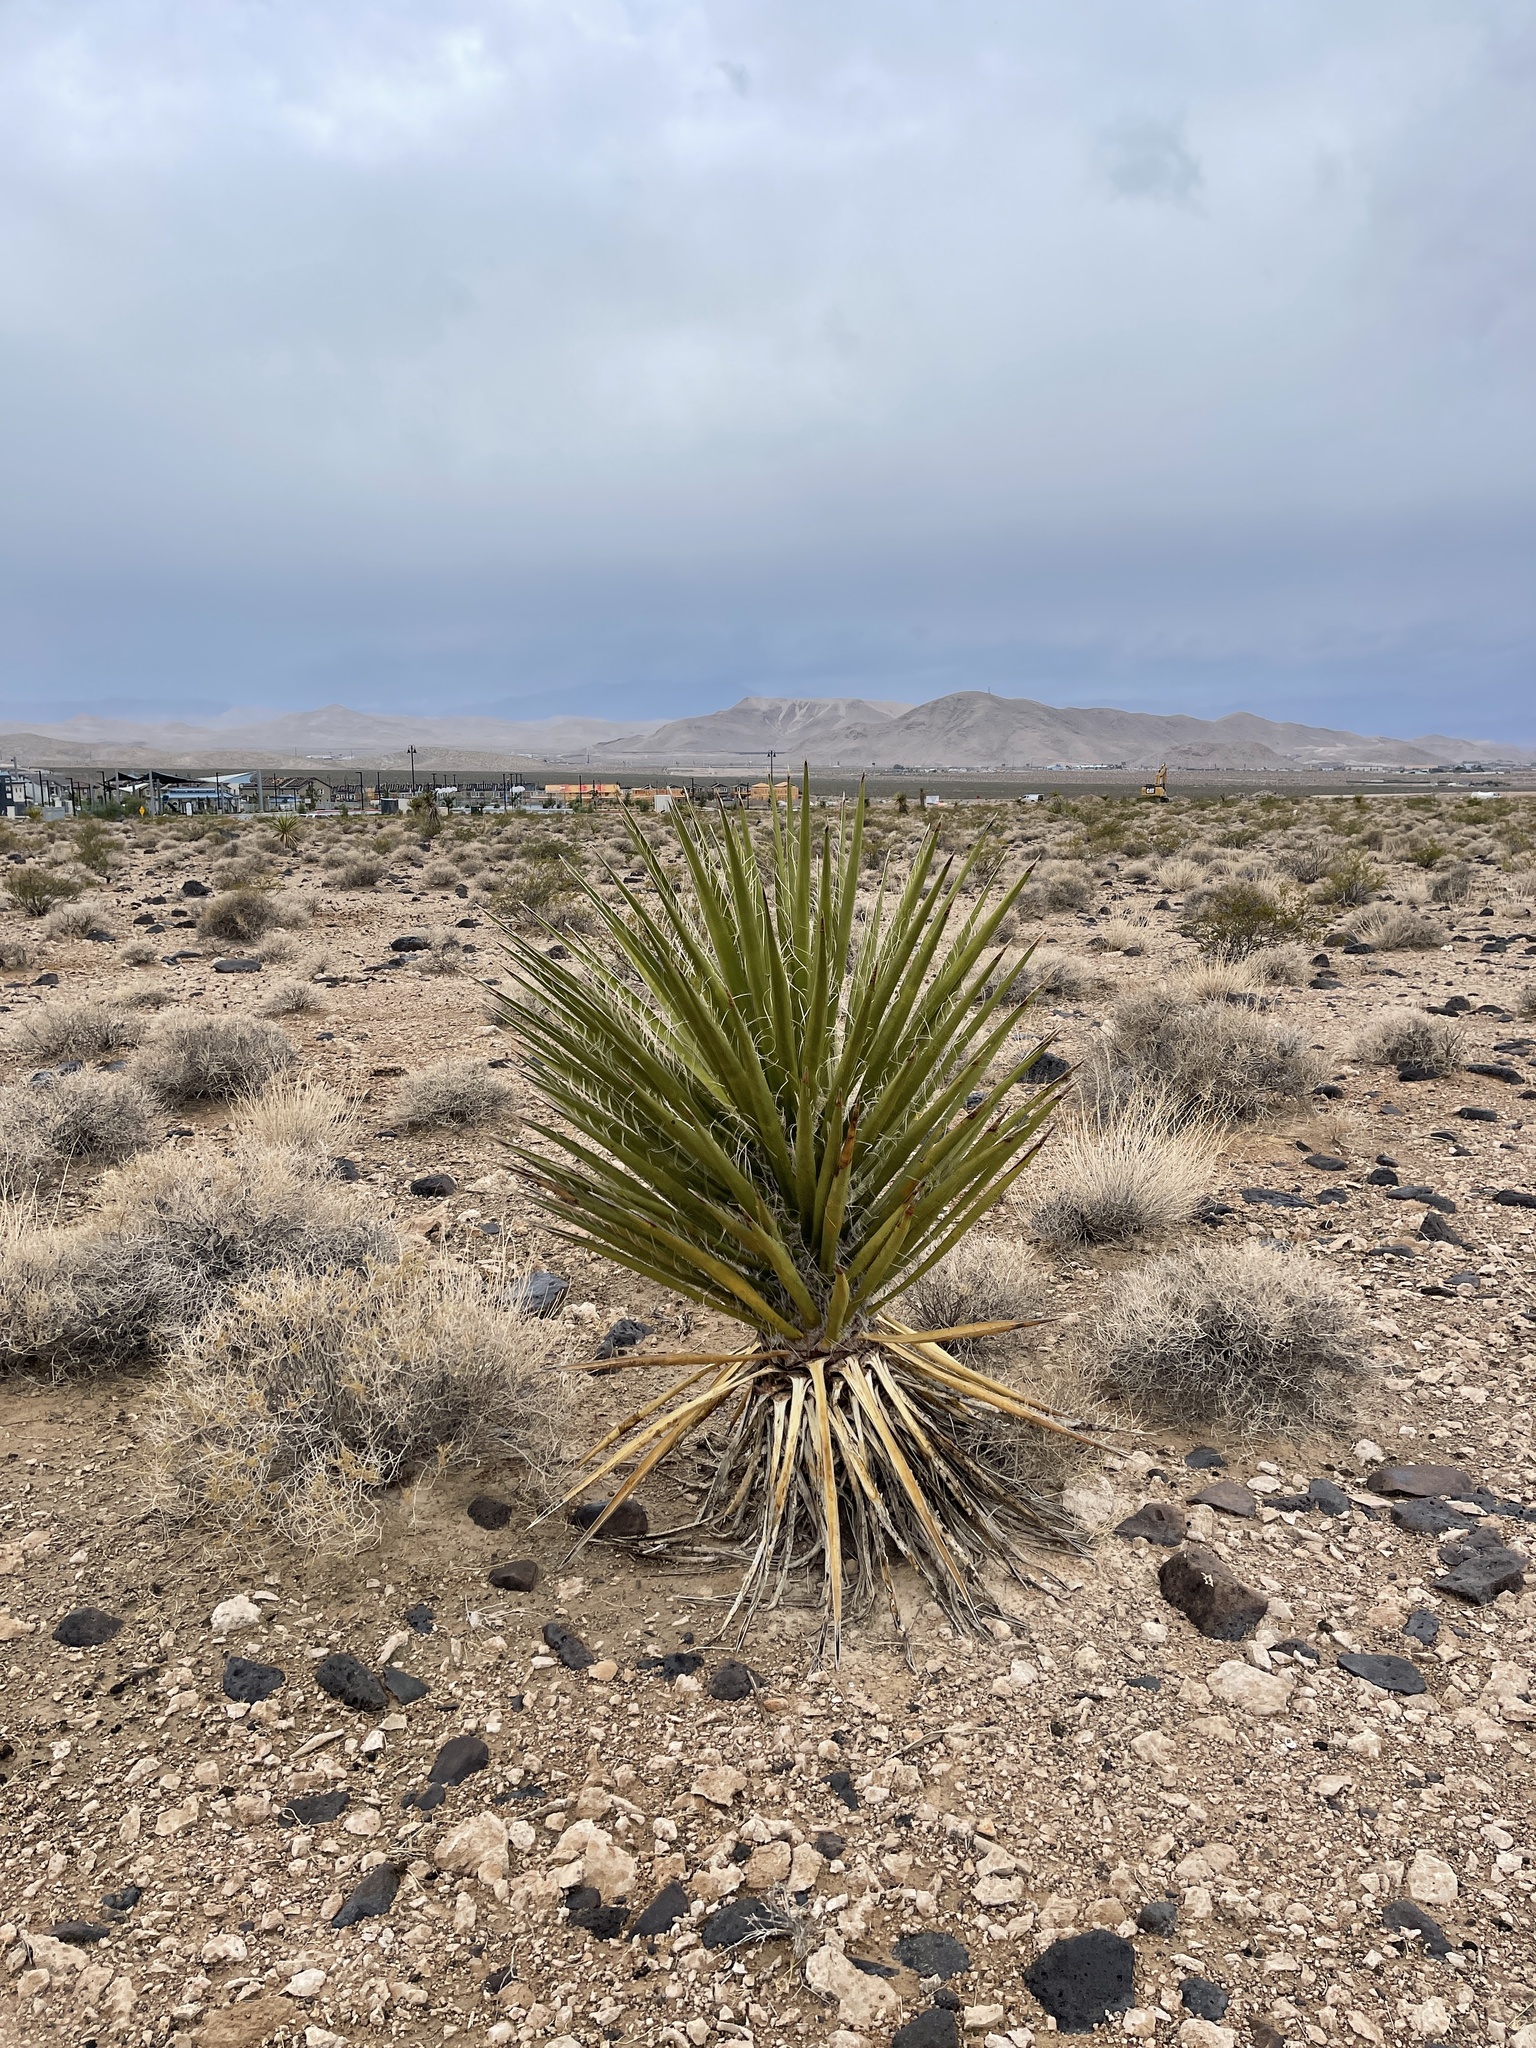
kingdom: Plantae
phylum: Tracheophyta
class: Liliopsida
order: Asparagales
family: Asparagaceae
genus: Yucca
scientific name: Yucca schidigera
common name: Mojave yucca
